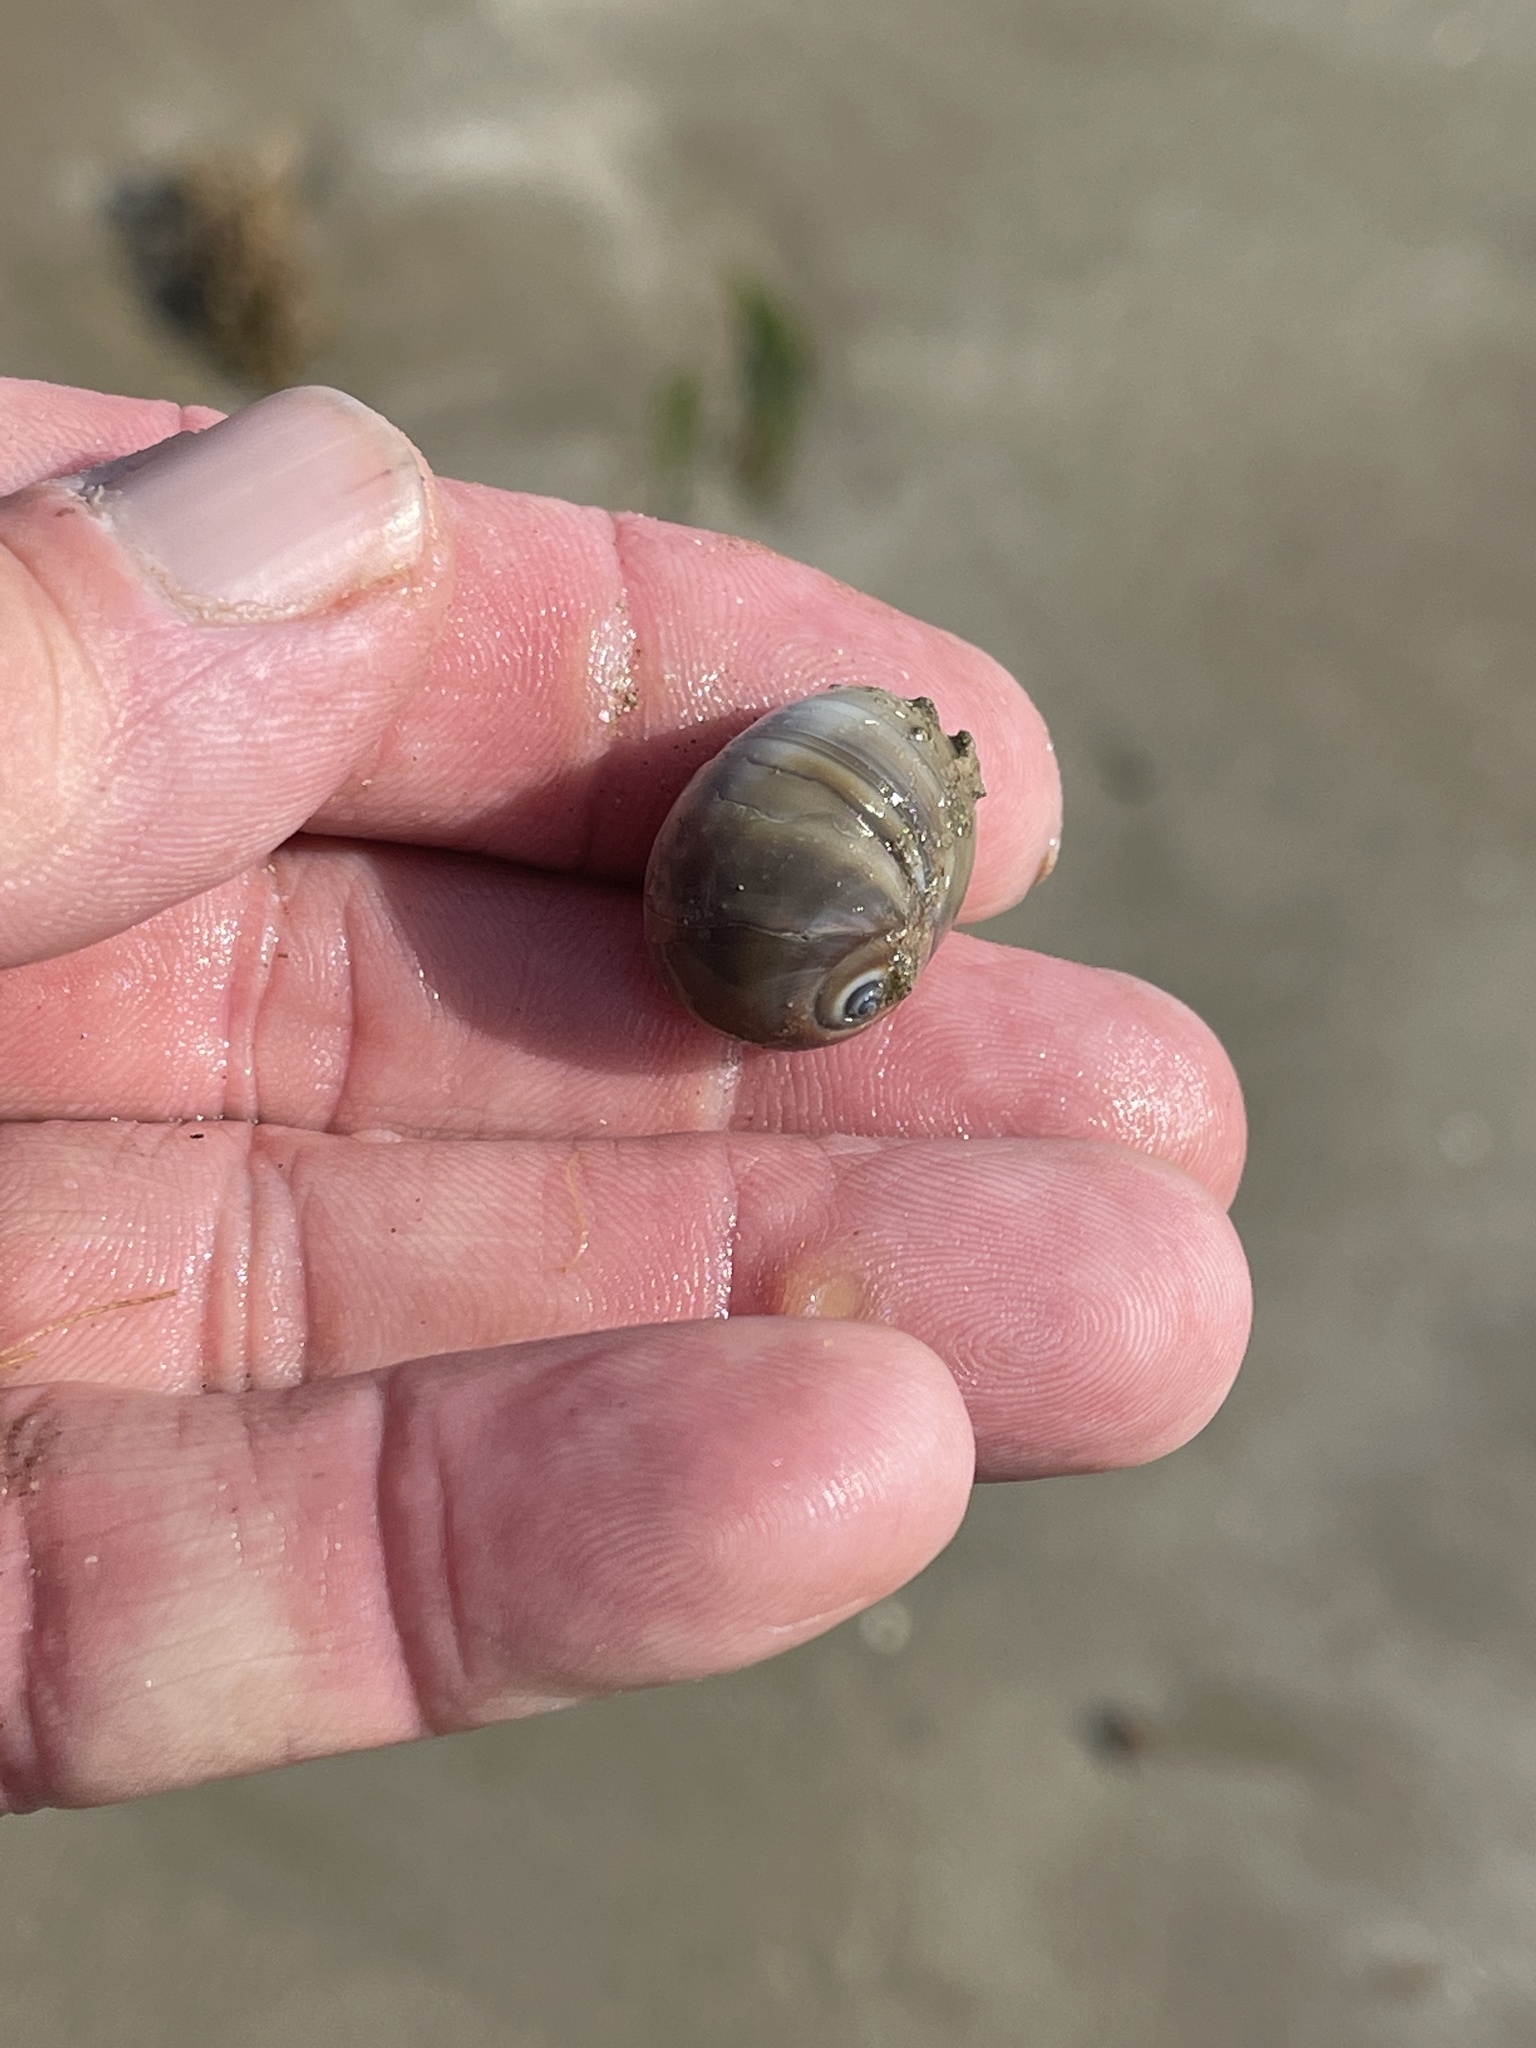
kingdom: Animalia
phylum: Mollusca
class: Gastropoda
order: Littorinimorpha
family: Naticidae
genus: Neverita
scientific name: Neverita duplicata
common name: Lobed moonsnail
